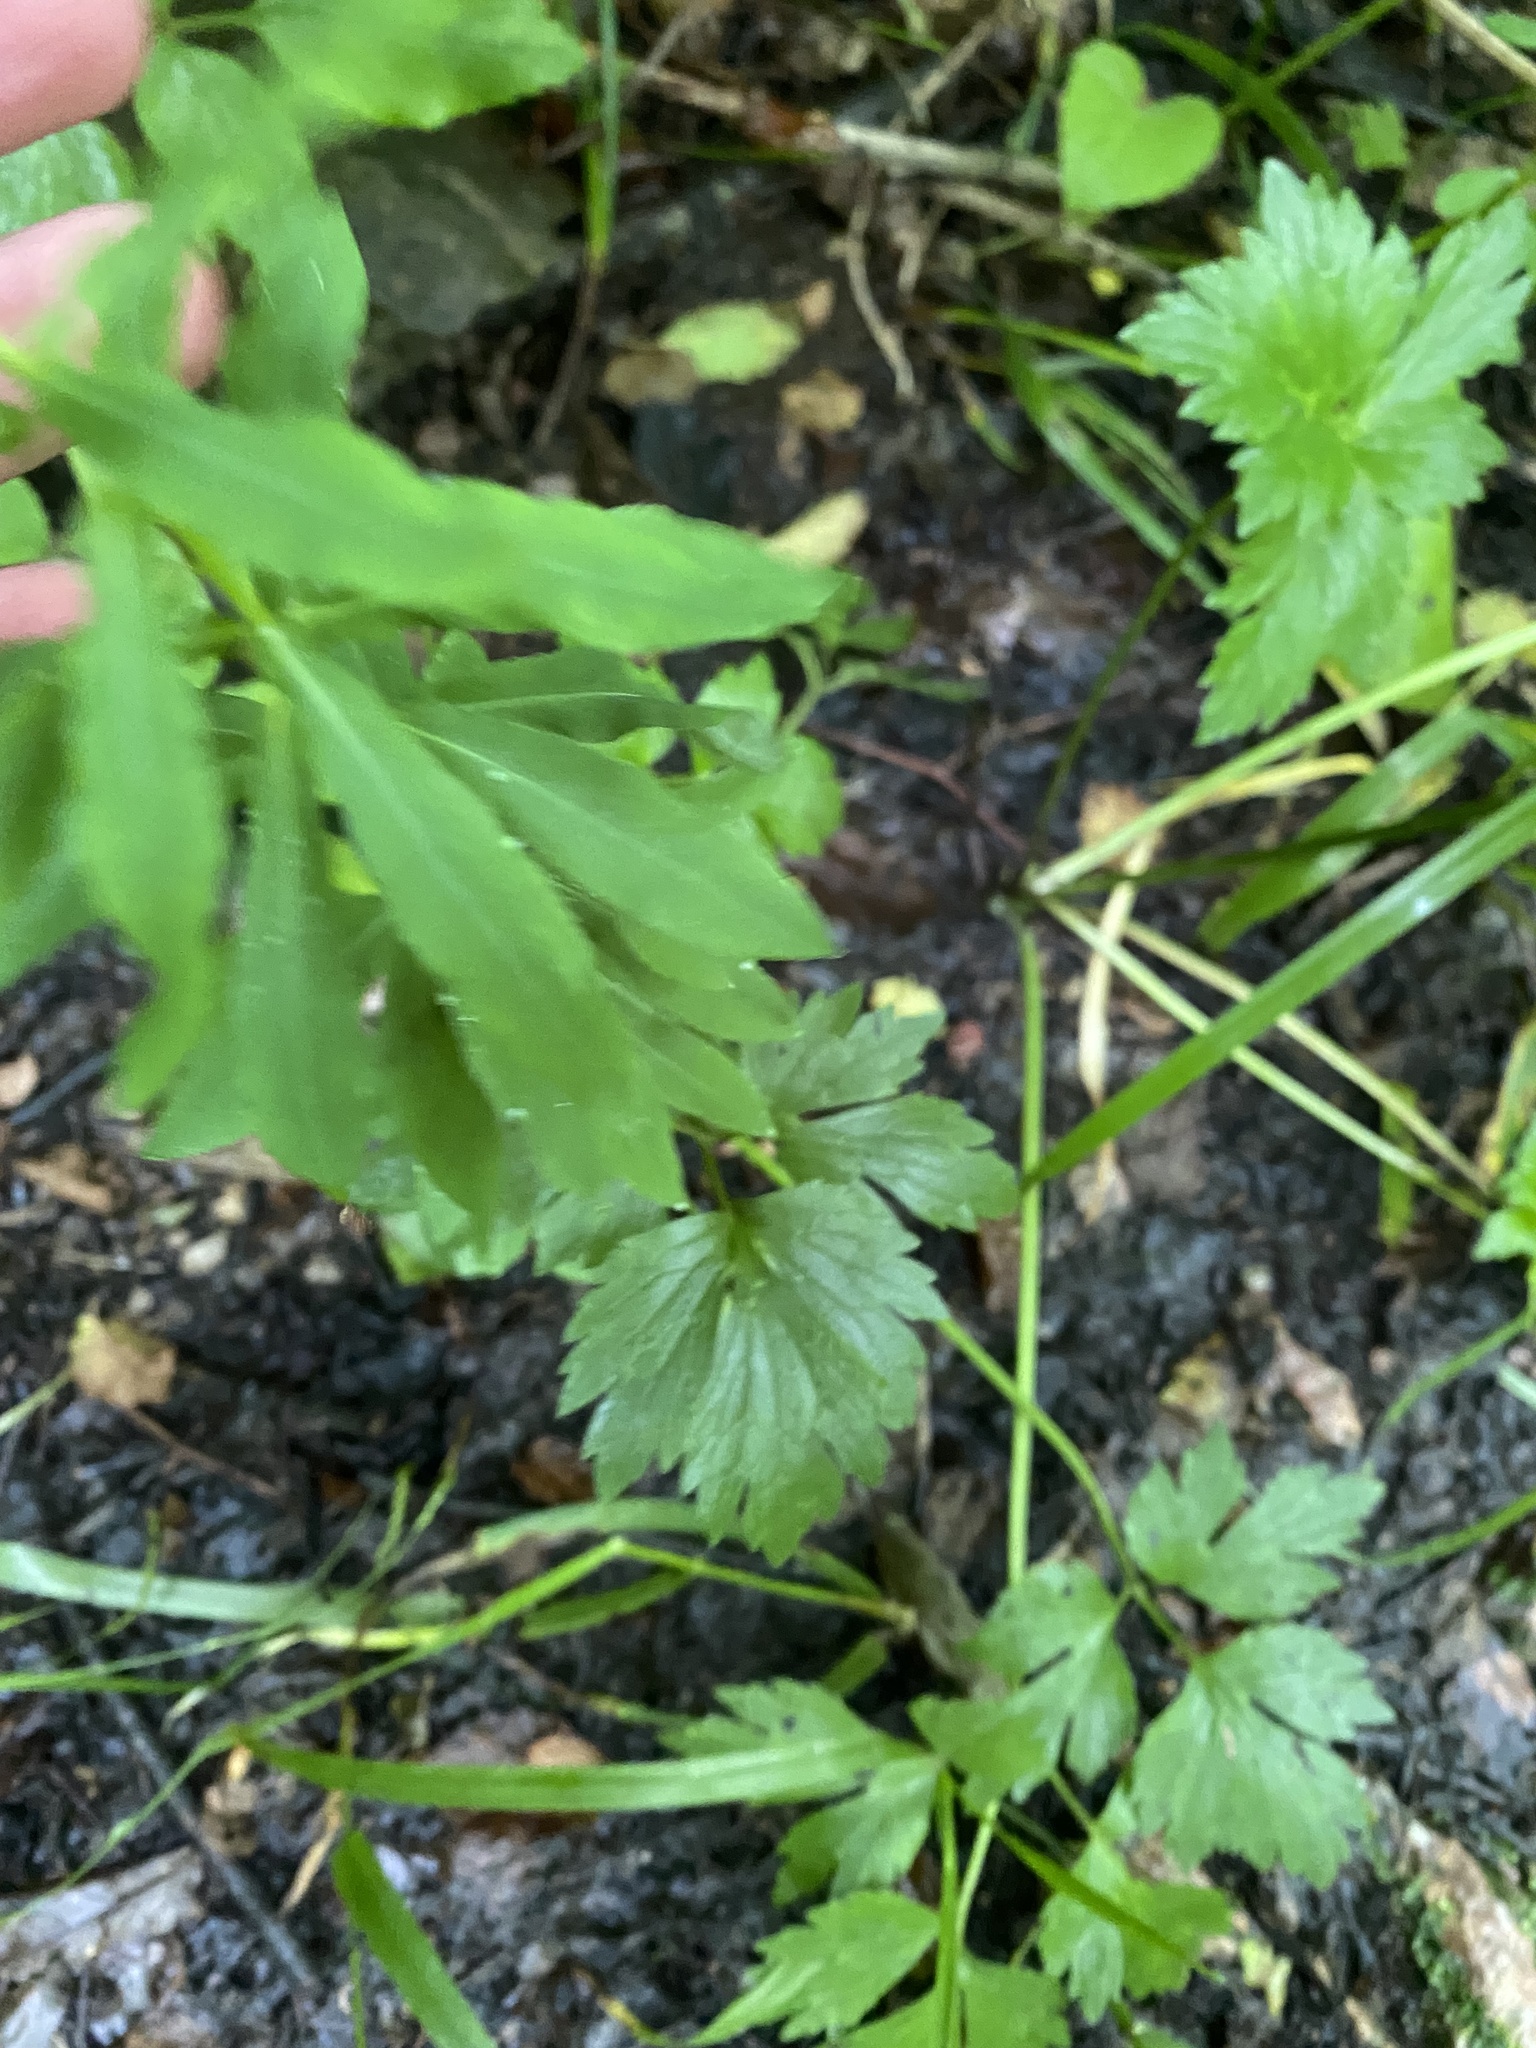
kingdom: Plantae
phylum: Tracheophyta
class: Magnoliopsida
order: Malpighiales
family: Euphorbiaceae
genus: Euphorbia
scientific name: Euphorbia stricta
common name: Upright spurge
